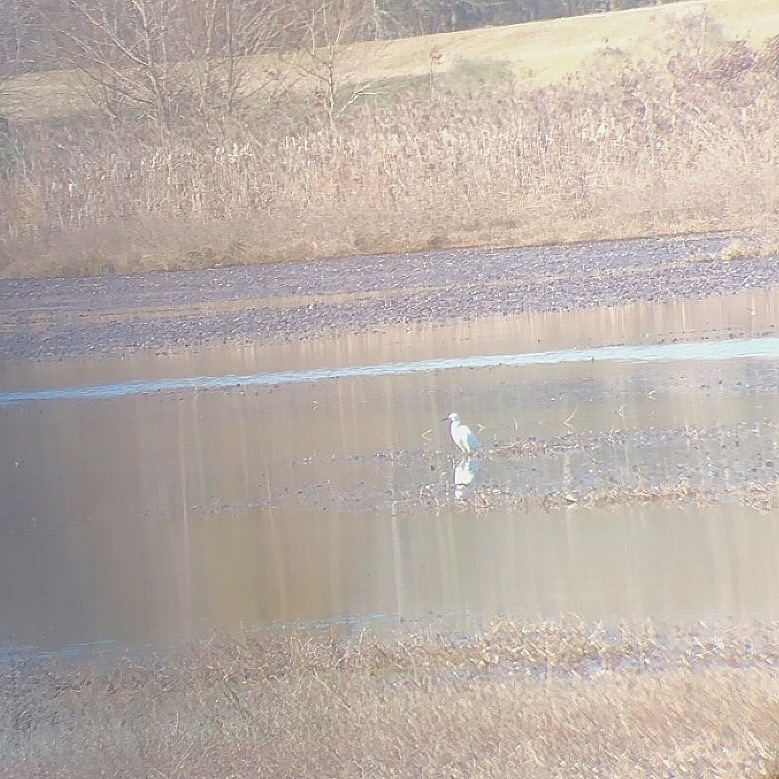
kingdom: Animalia
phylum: Chordata
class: Aves
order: Pelecaniformes
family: Ardeidae
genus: Egretta
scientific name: Egretta thula
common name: Snowy egret
